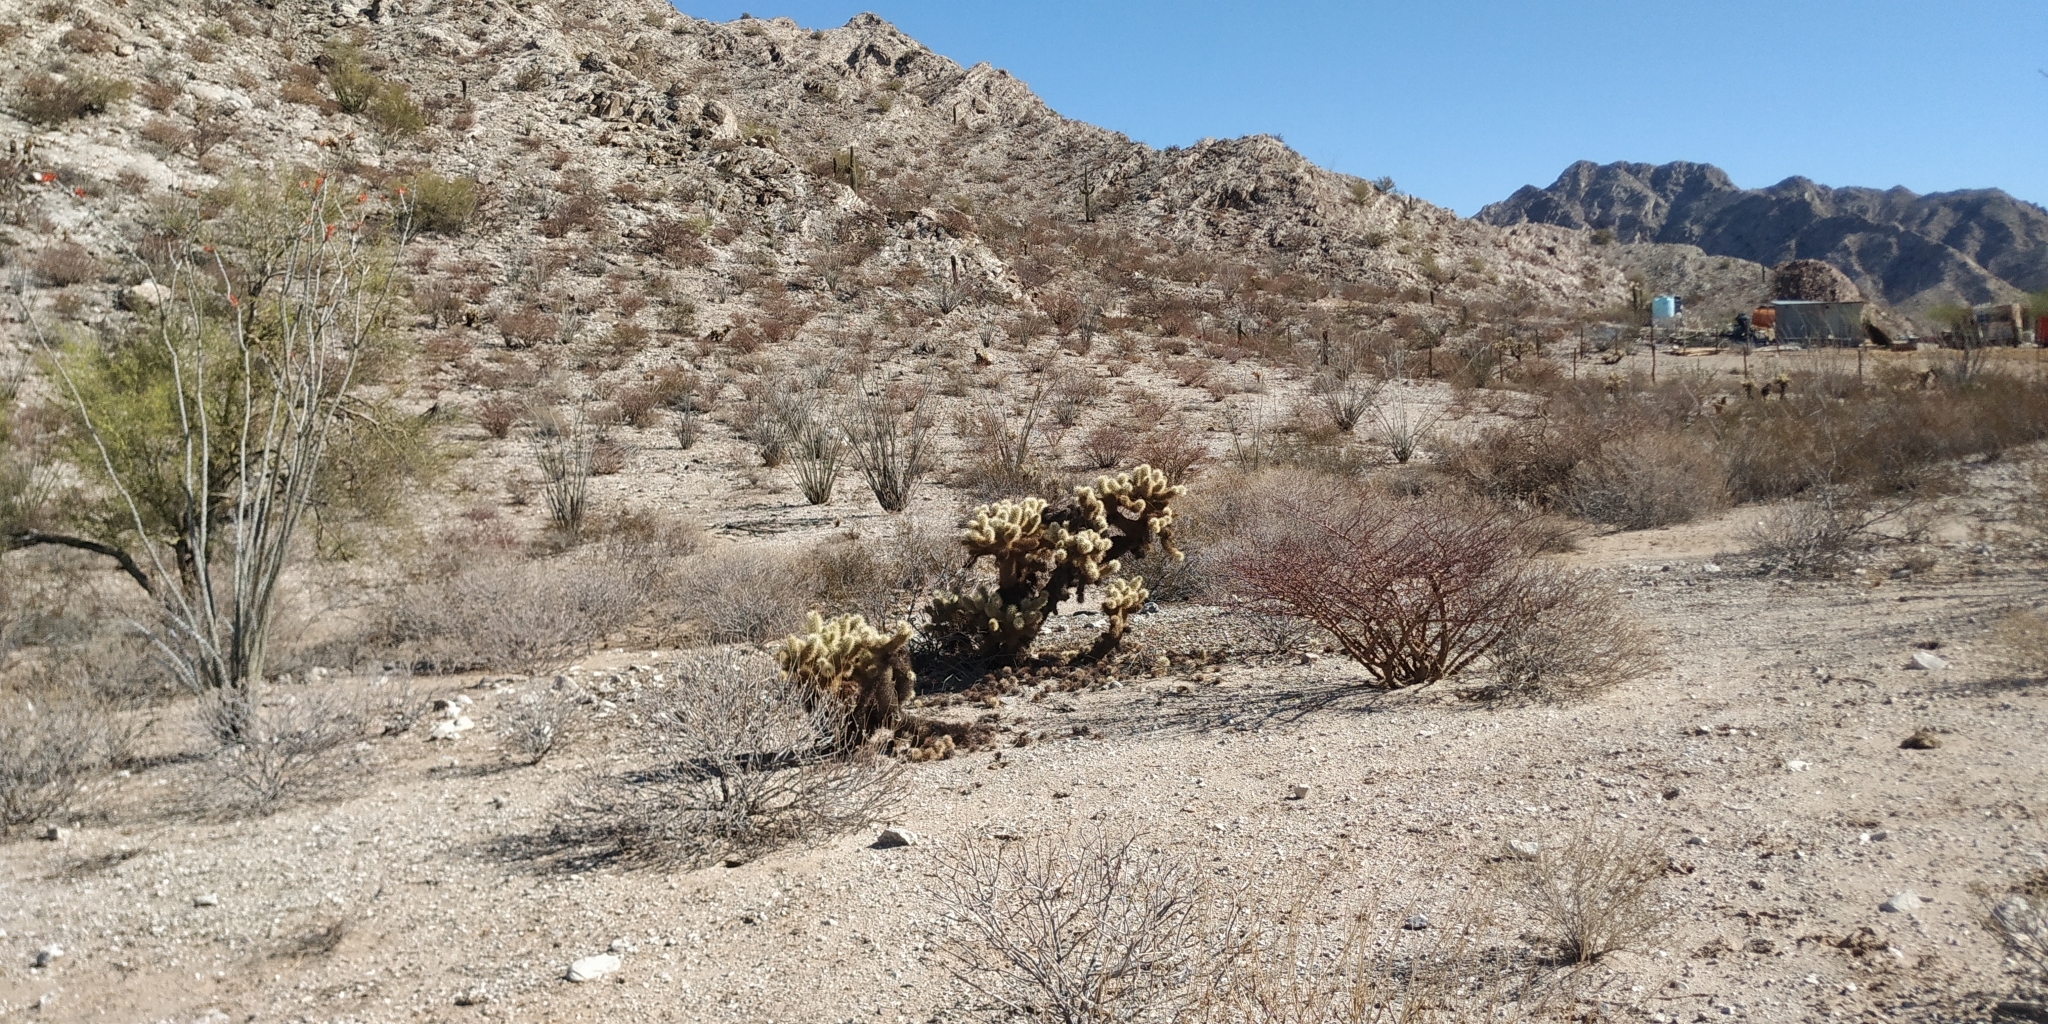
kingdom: Plantae
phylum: Tracheophyta
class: Magnoliopsida
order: Caryophyllales
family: Cactaceae
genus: Cylindropuntia
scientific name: Cylindropuntia fosbergii
